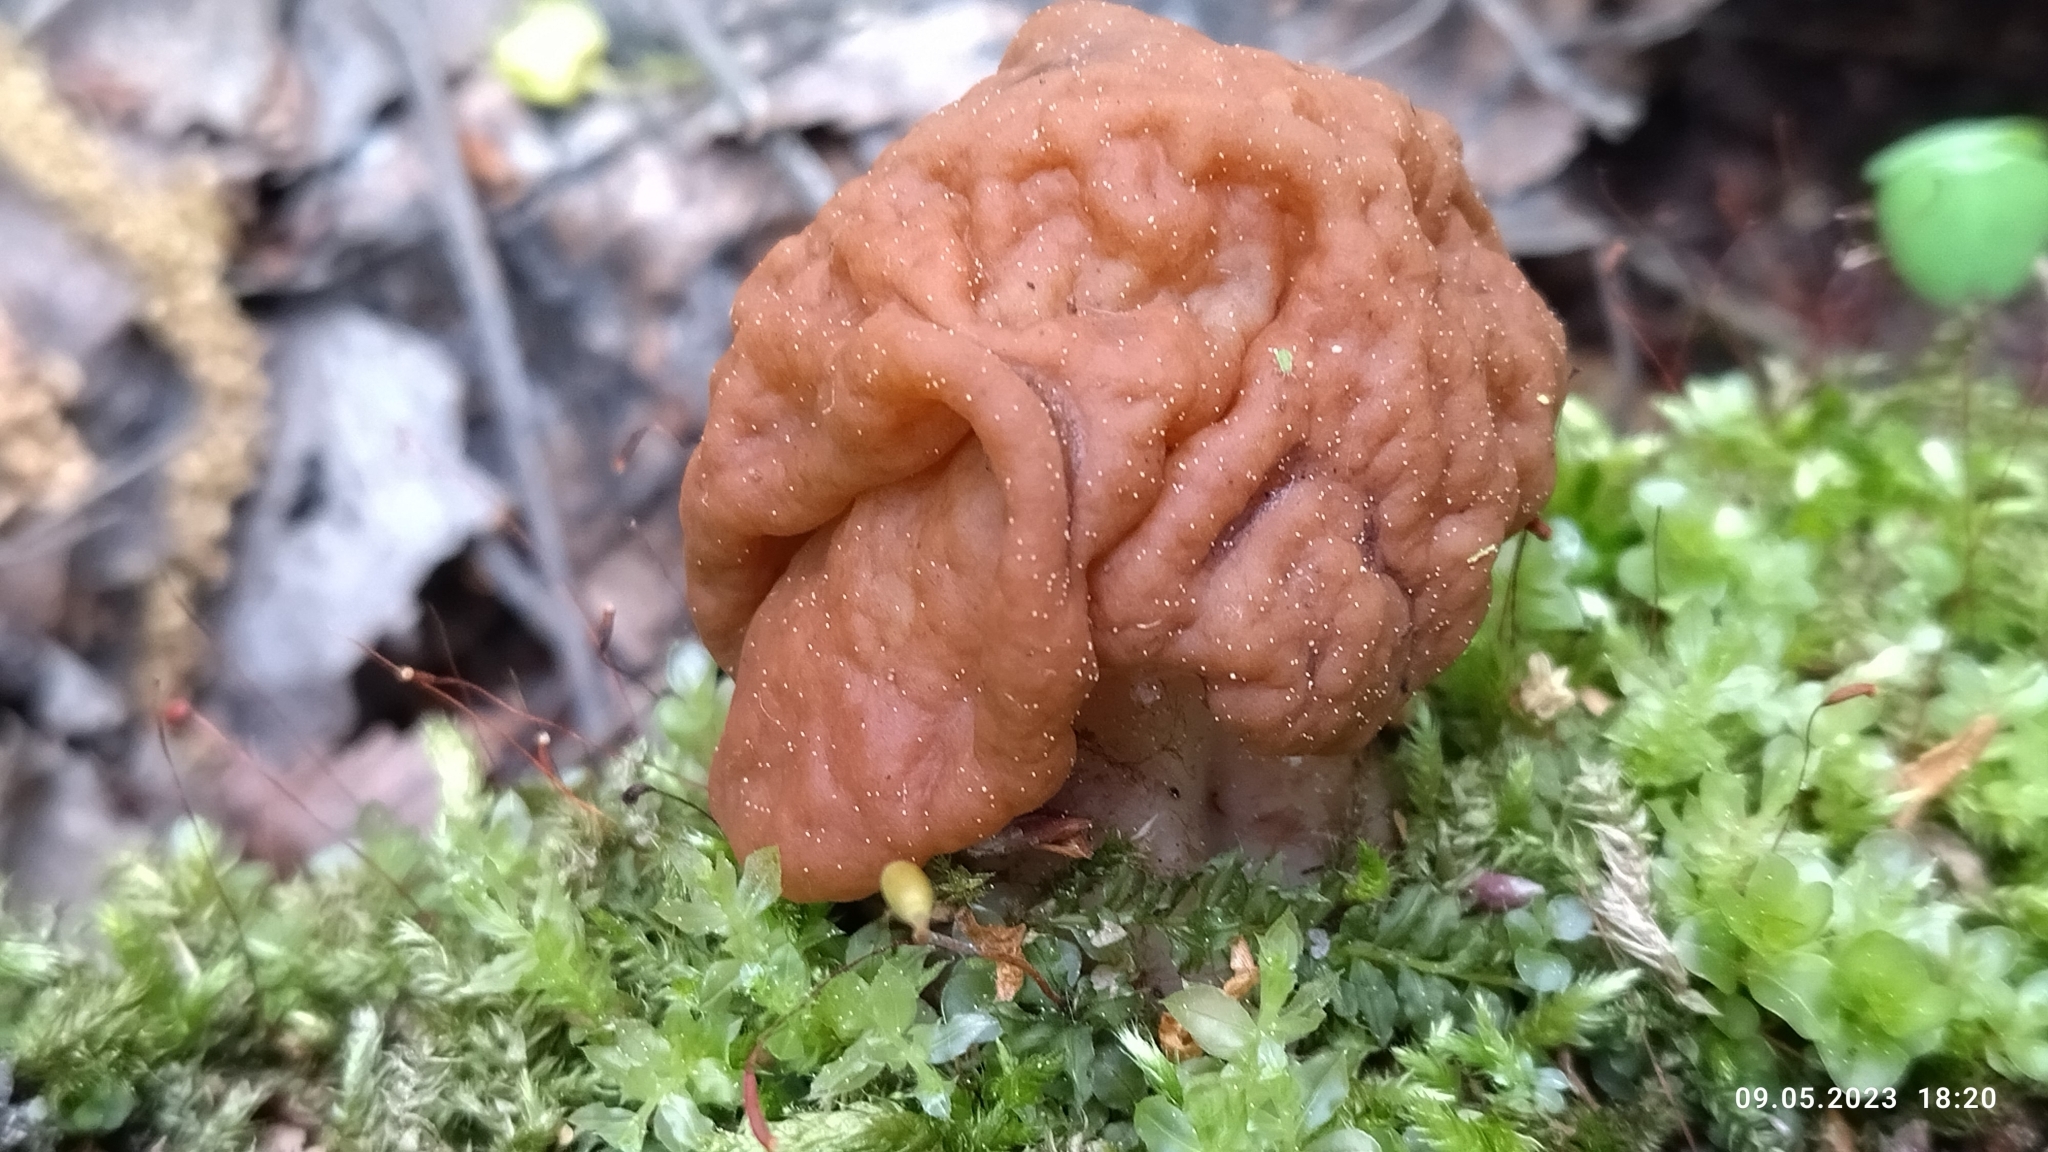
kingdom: Fungi
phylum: Ascomycota
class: Pezizomycetes
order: Pezizales
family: Discinaceae
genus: Gyromitra
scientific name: Gyromitra gigas
